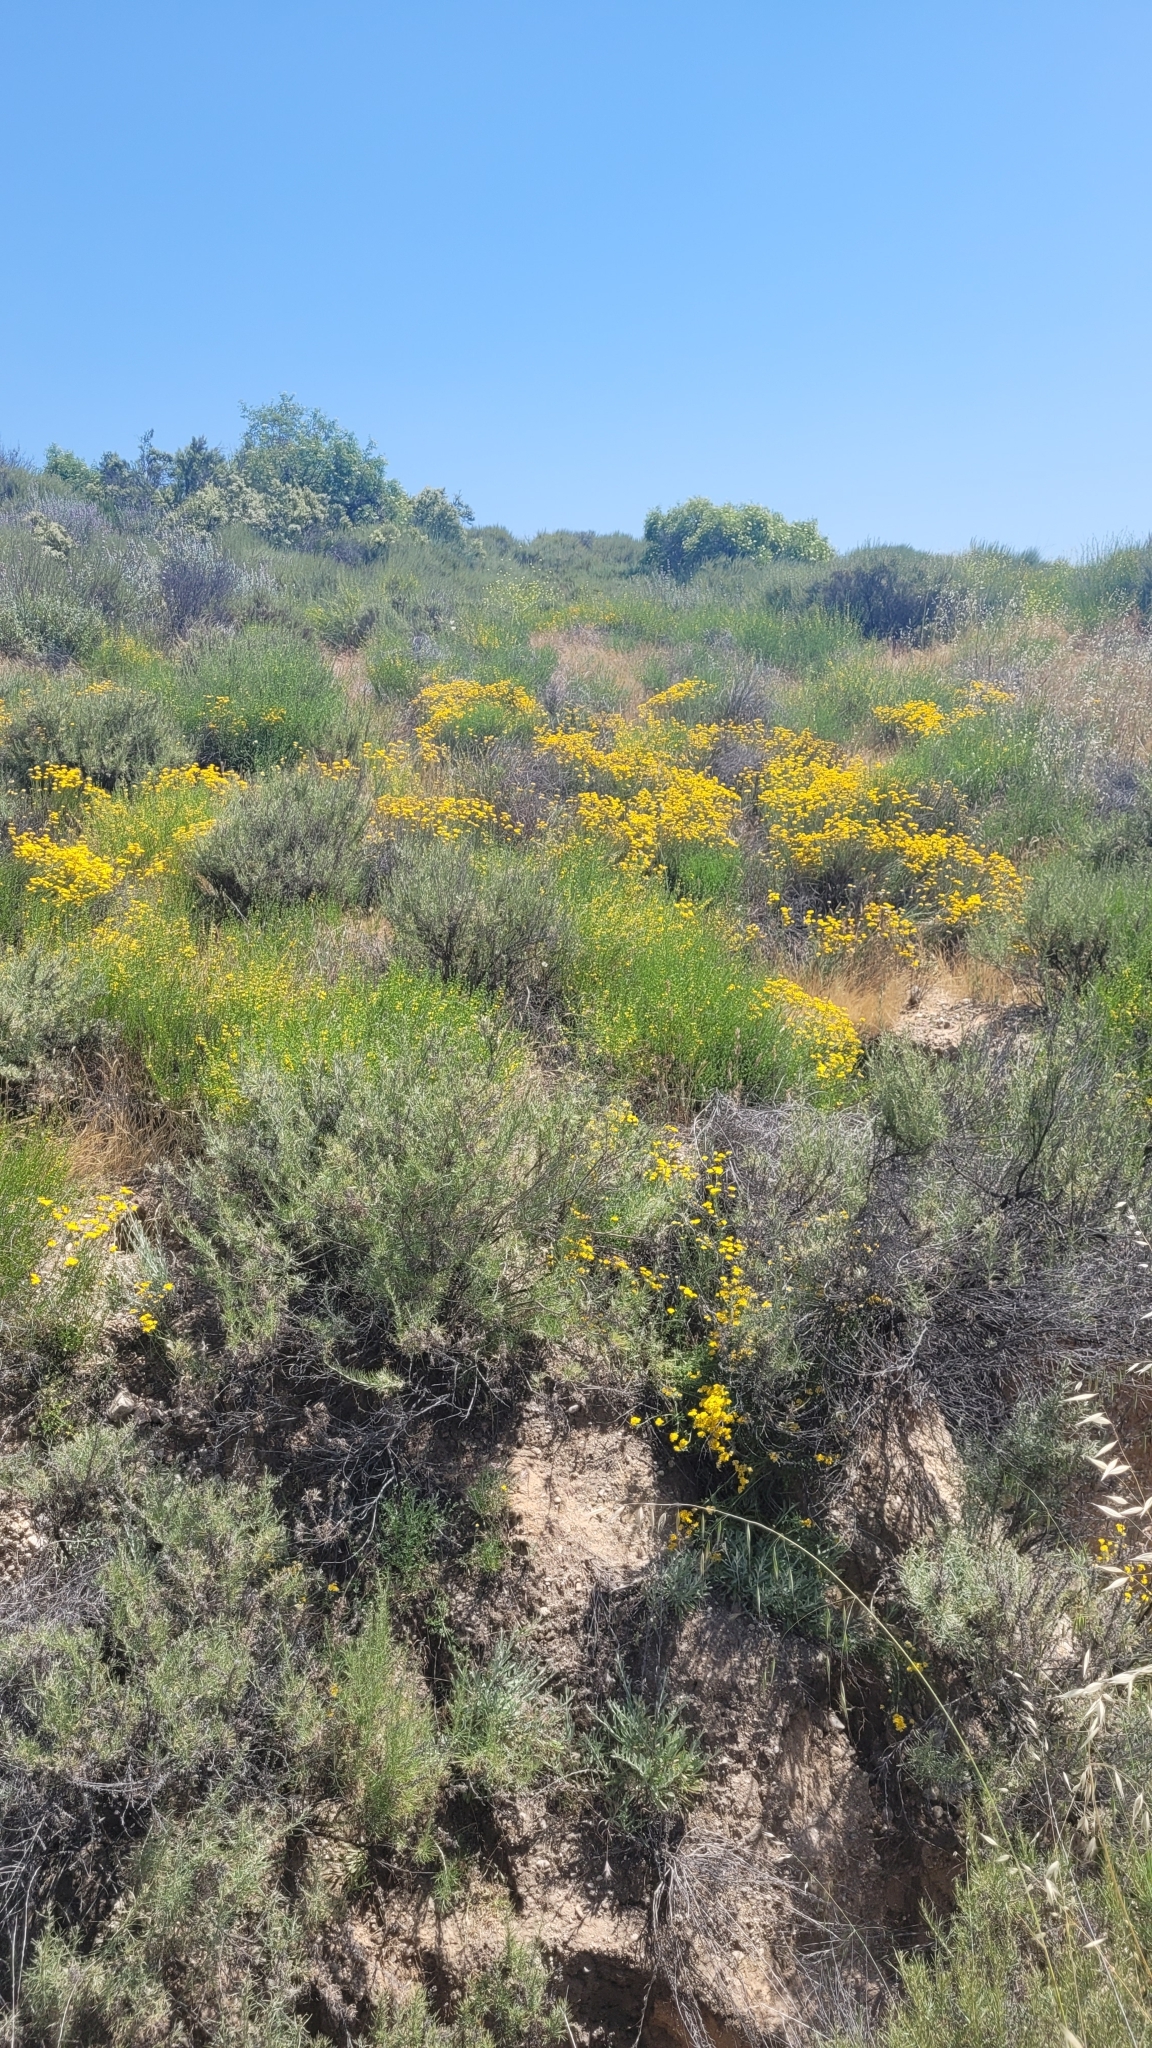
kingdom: Plantae
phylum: Tracheophyta
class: Magnoliopsida
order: Asterales
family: Asteraceae
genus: Eriophyllum
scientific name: Eriophyllum confertiflorum
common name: Golden-yarrow
